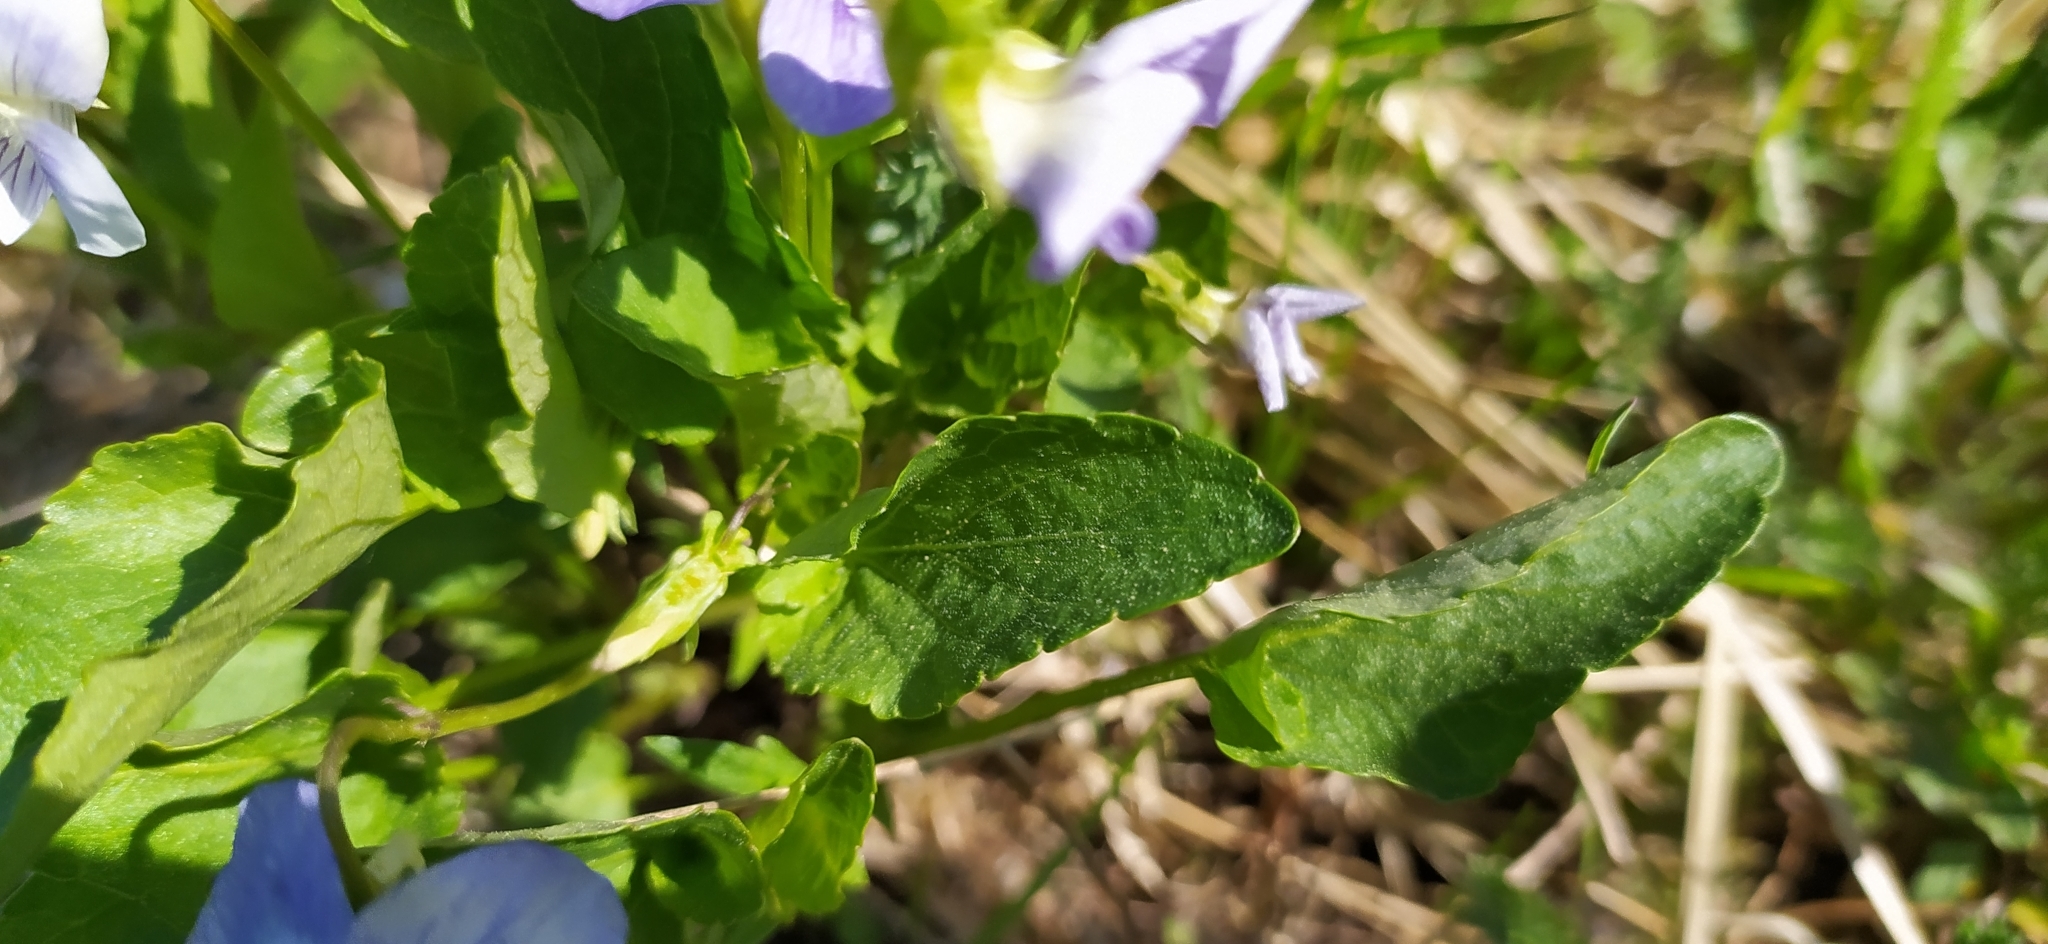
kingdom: Plantae
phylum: Tracheophyta
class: Magnoliopsida
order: Malpighiales
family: Violaceae
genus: Viola
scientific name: Viola canina
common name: Heath dog-violet
